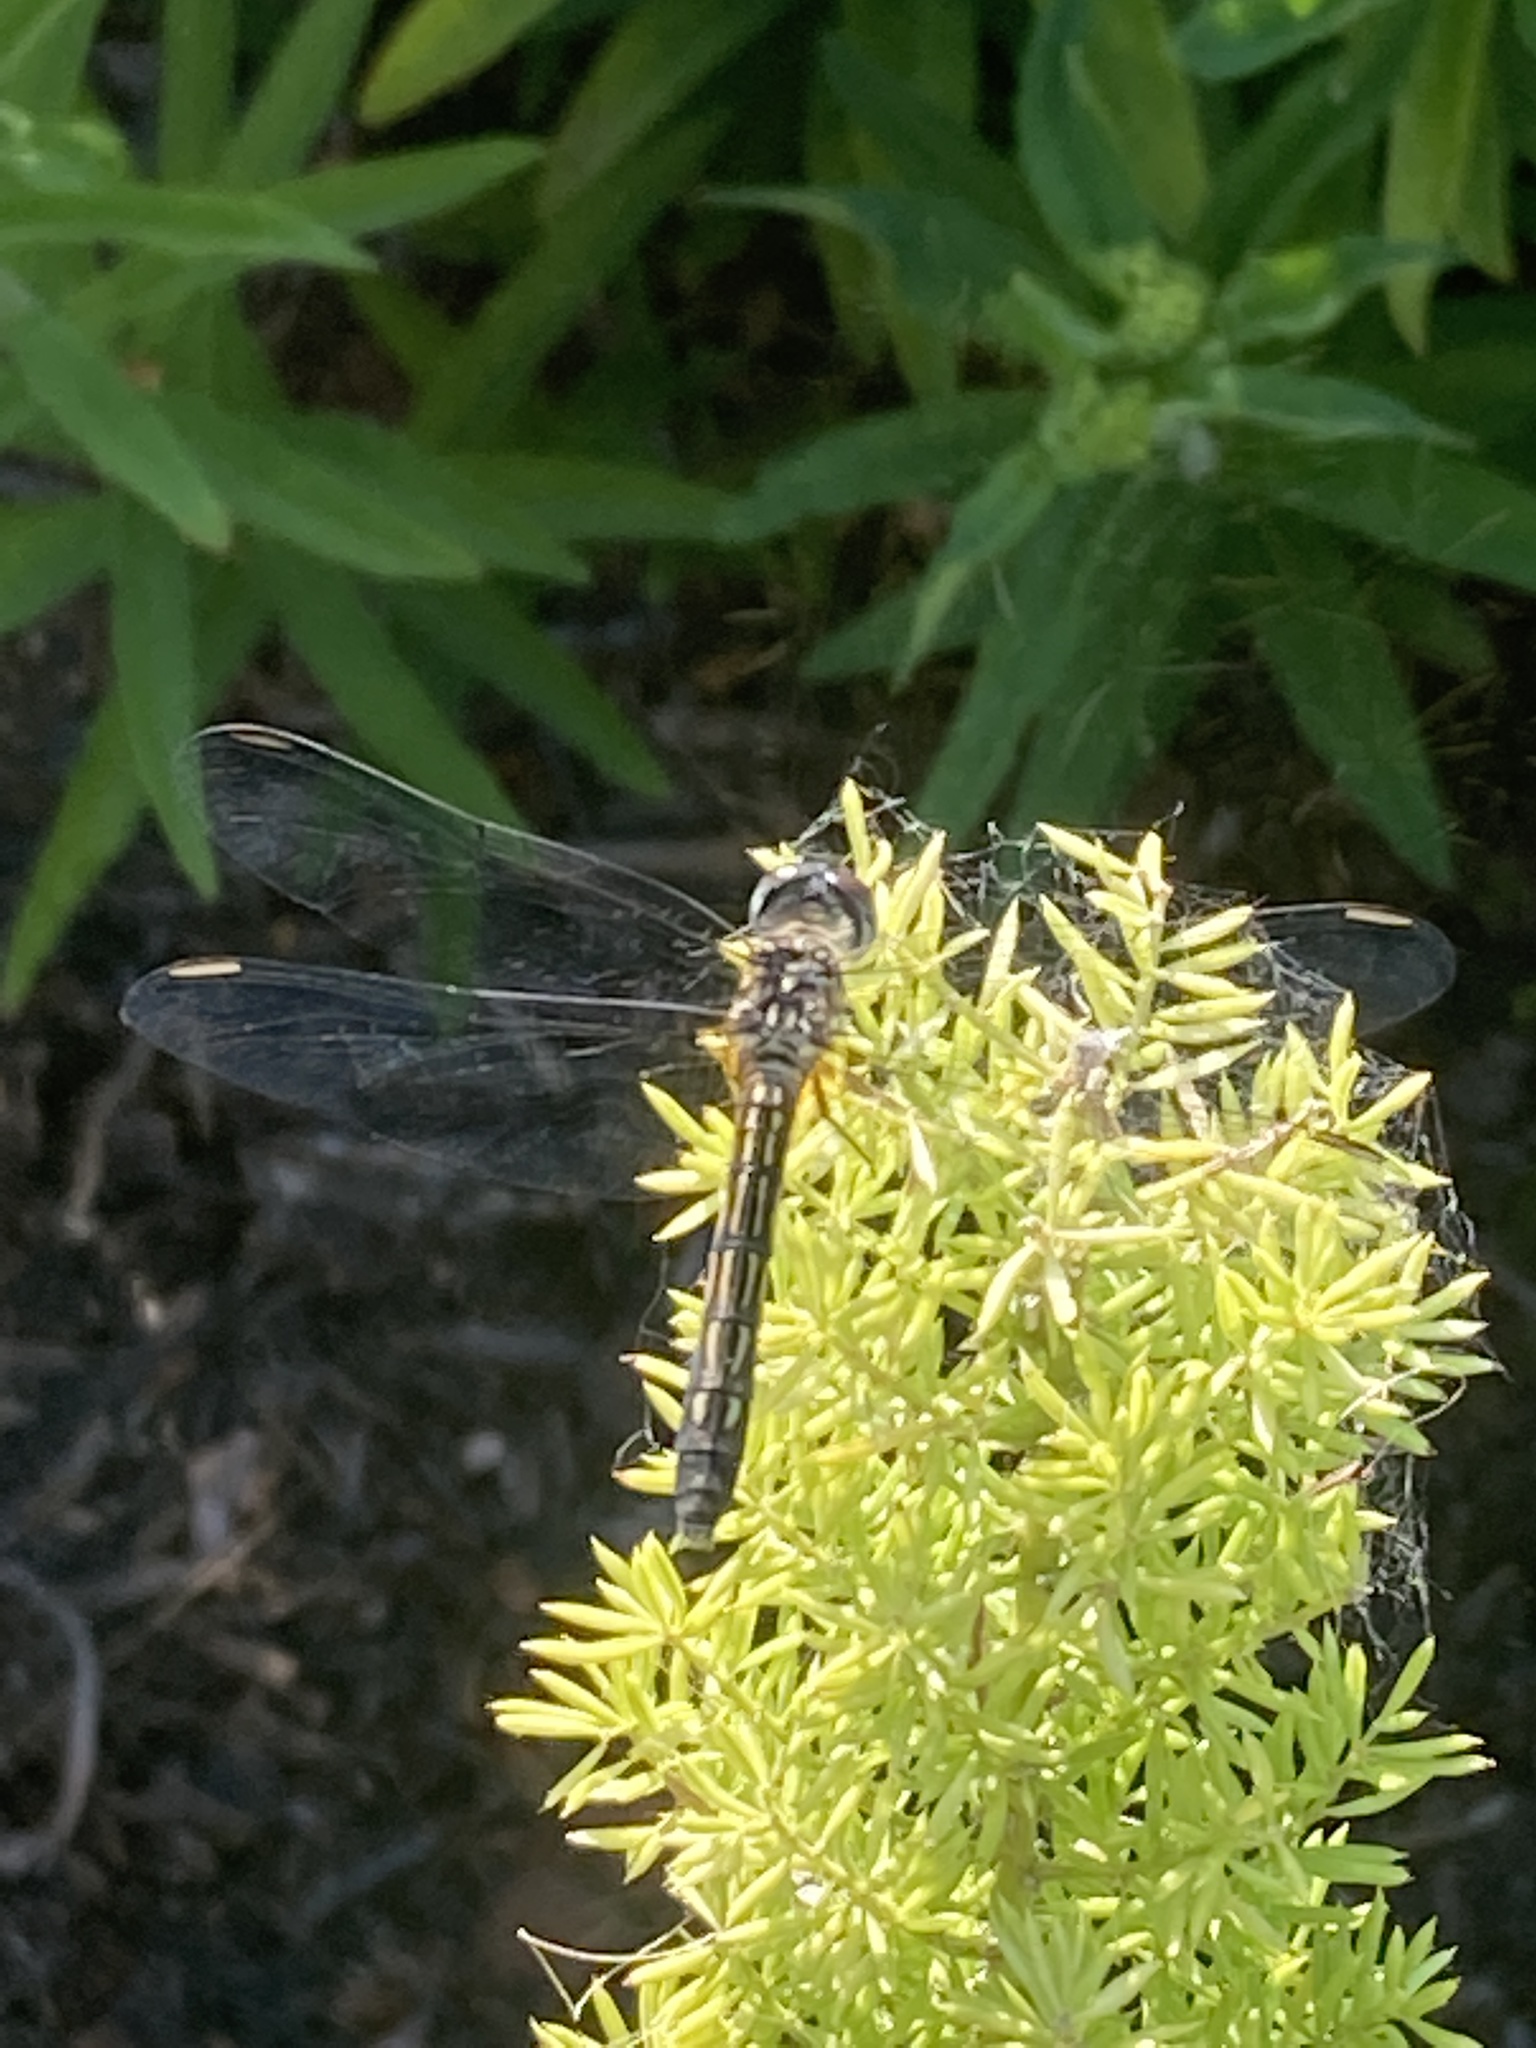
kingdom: Animalia
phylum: Arthropoda
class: Insecta
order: Odonata
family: Libellulidae
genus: Pachydiplax
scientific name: Pachydiplax longipennis
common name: Blue dasher
